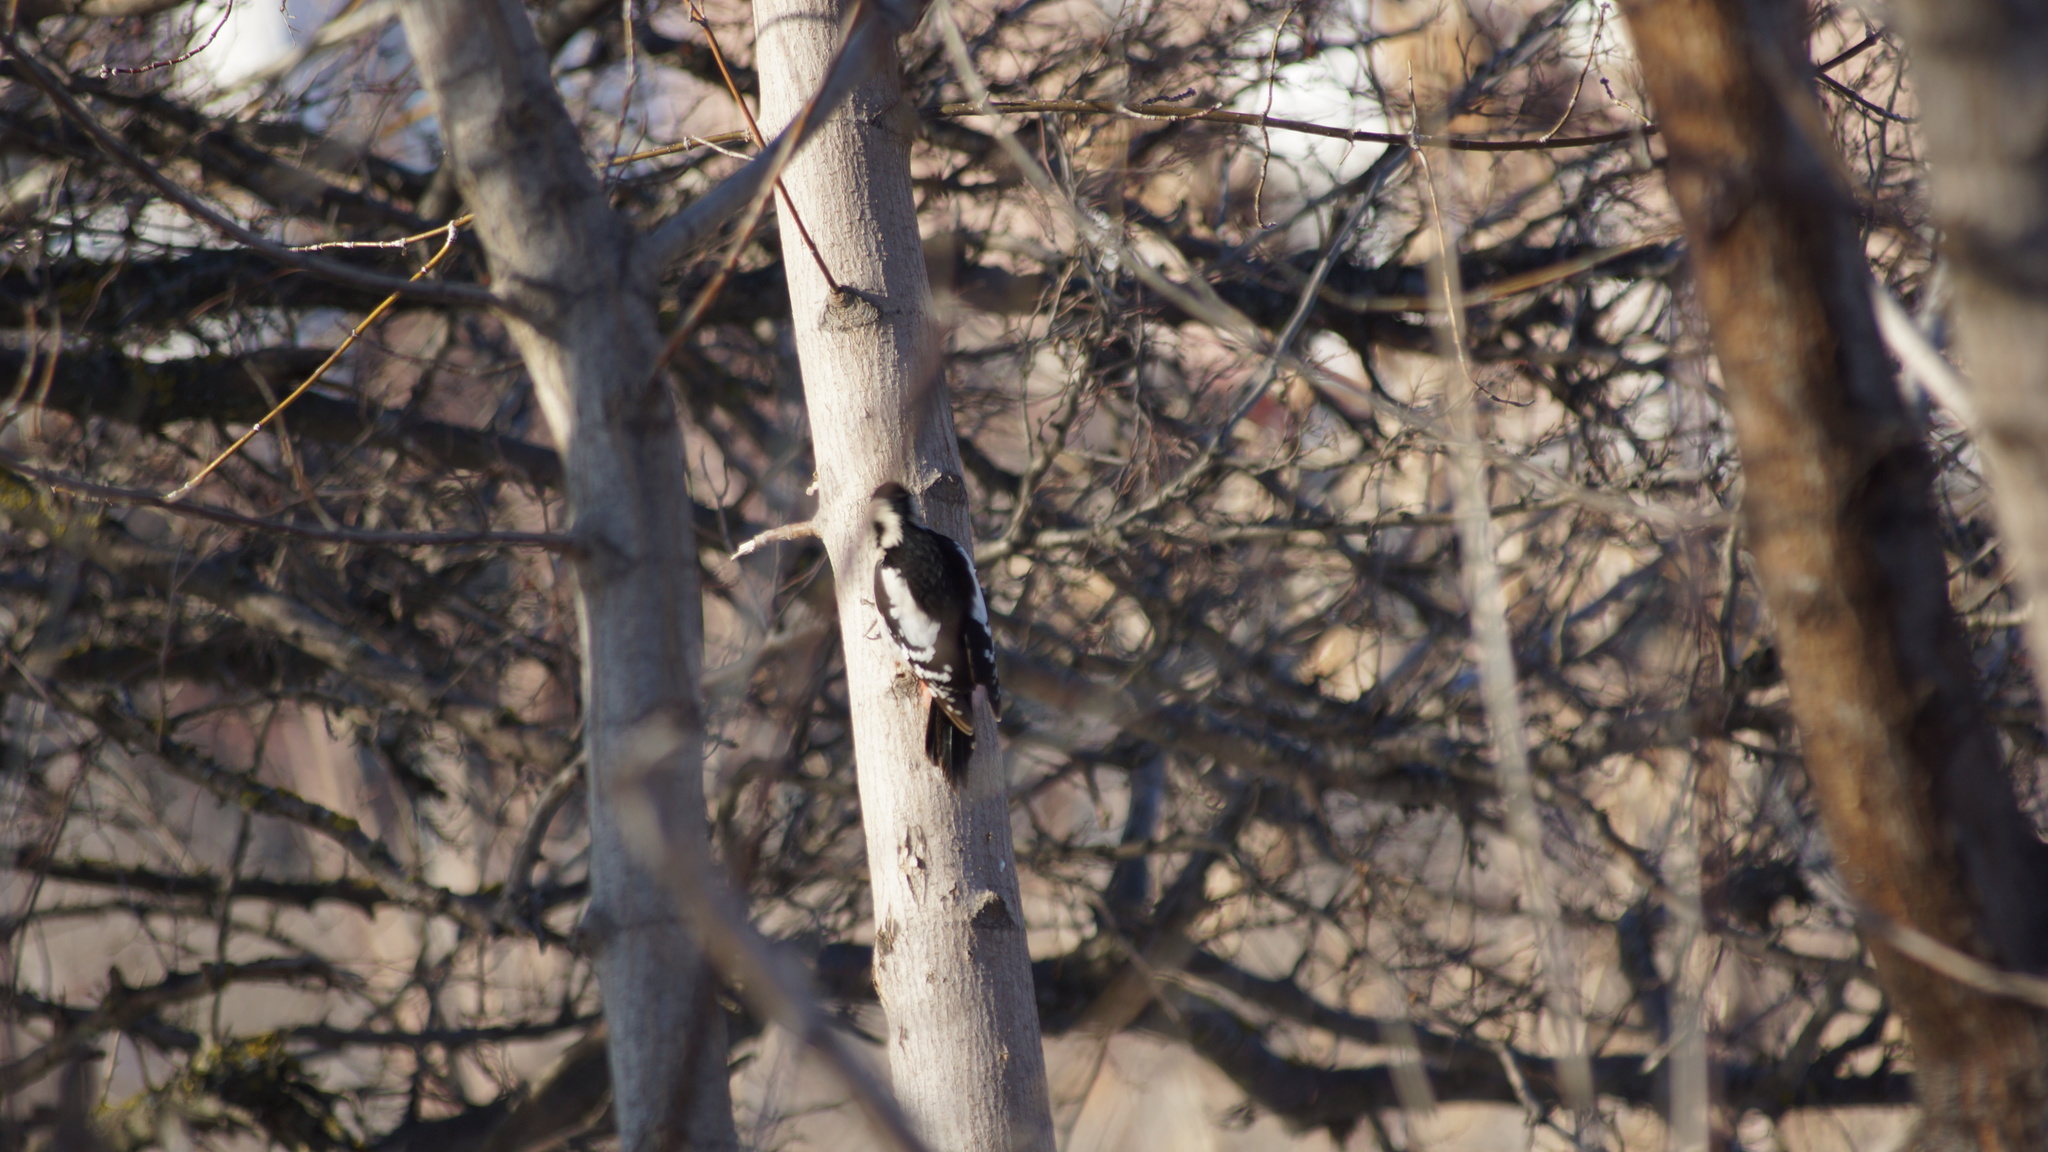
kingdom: Animalia
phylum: Chordata
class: Aves
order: Piciformes
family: Picidae
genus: Dendrocopos
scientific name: Dendrocopos syriacus
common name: Syrian woodpecker
